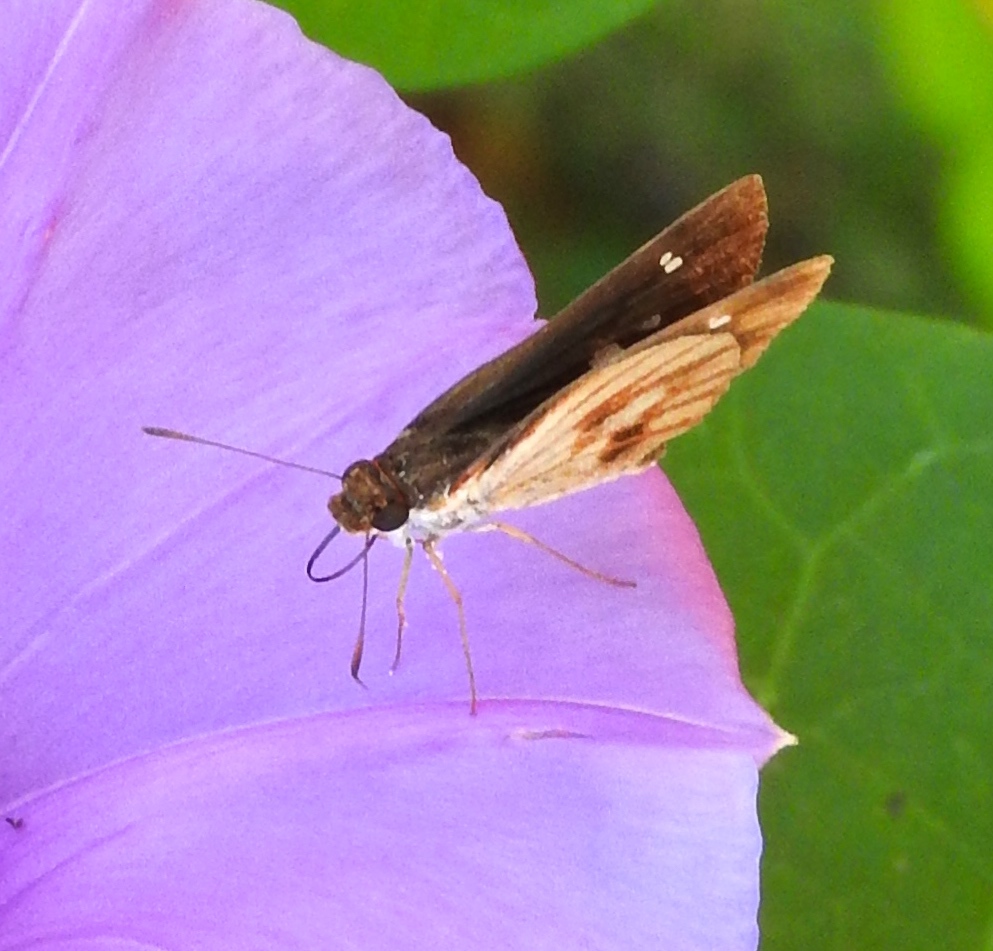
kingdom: Animalia
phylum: Arthropoda
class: Insecta
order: Lepidoptera
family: Hesperiidae
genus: Troyus
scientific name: Troyus fantasos
